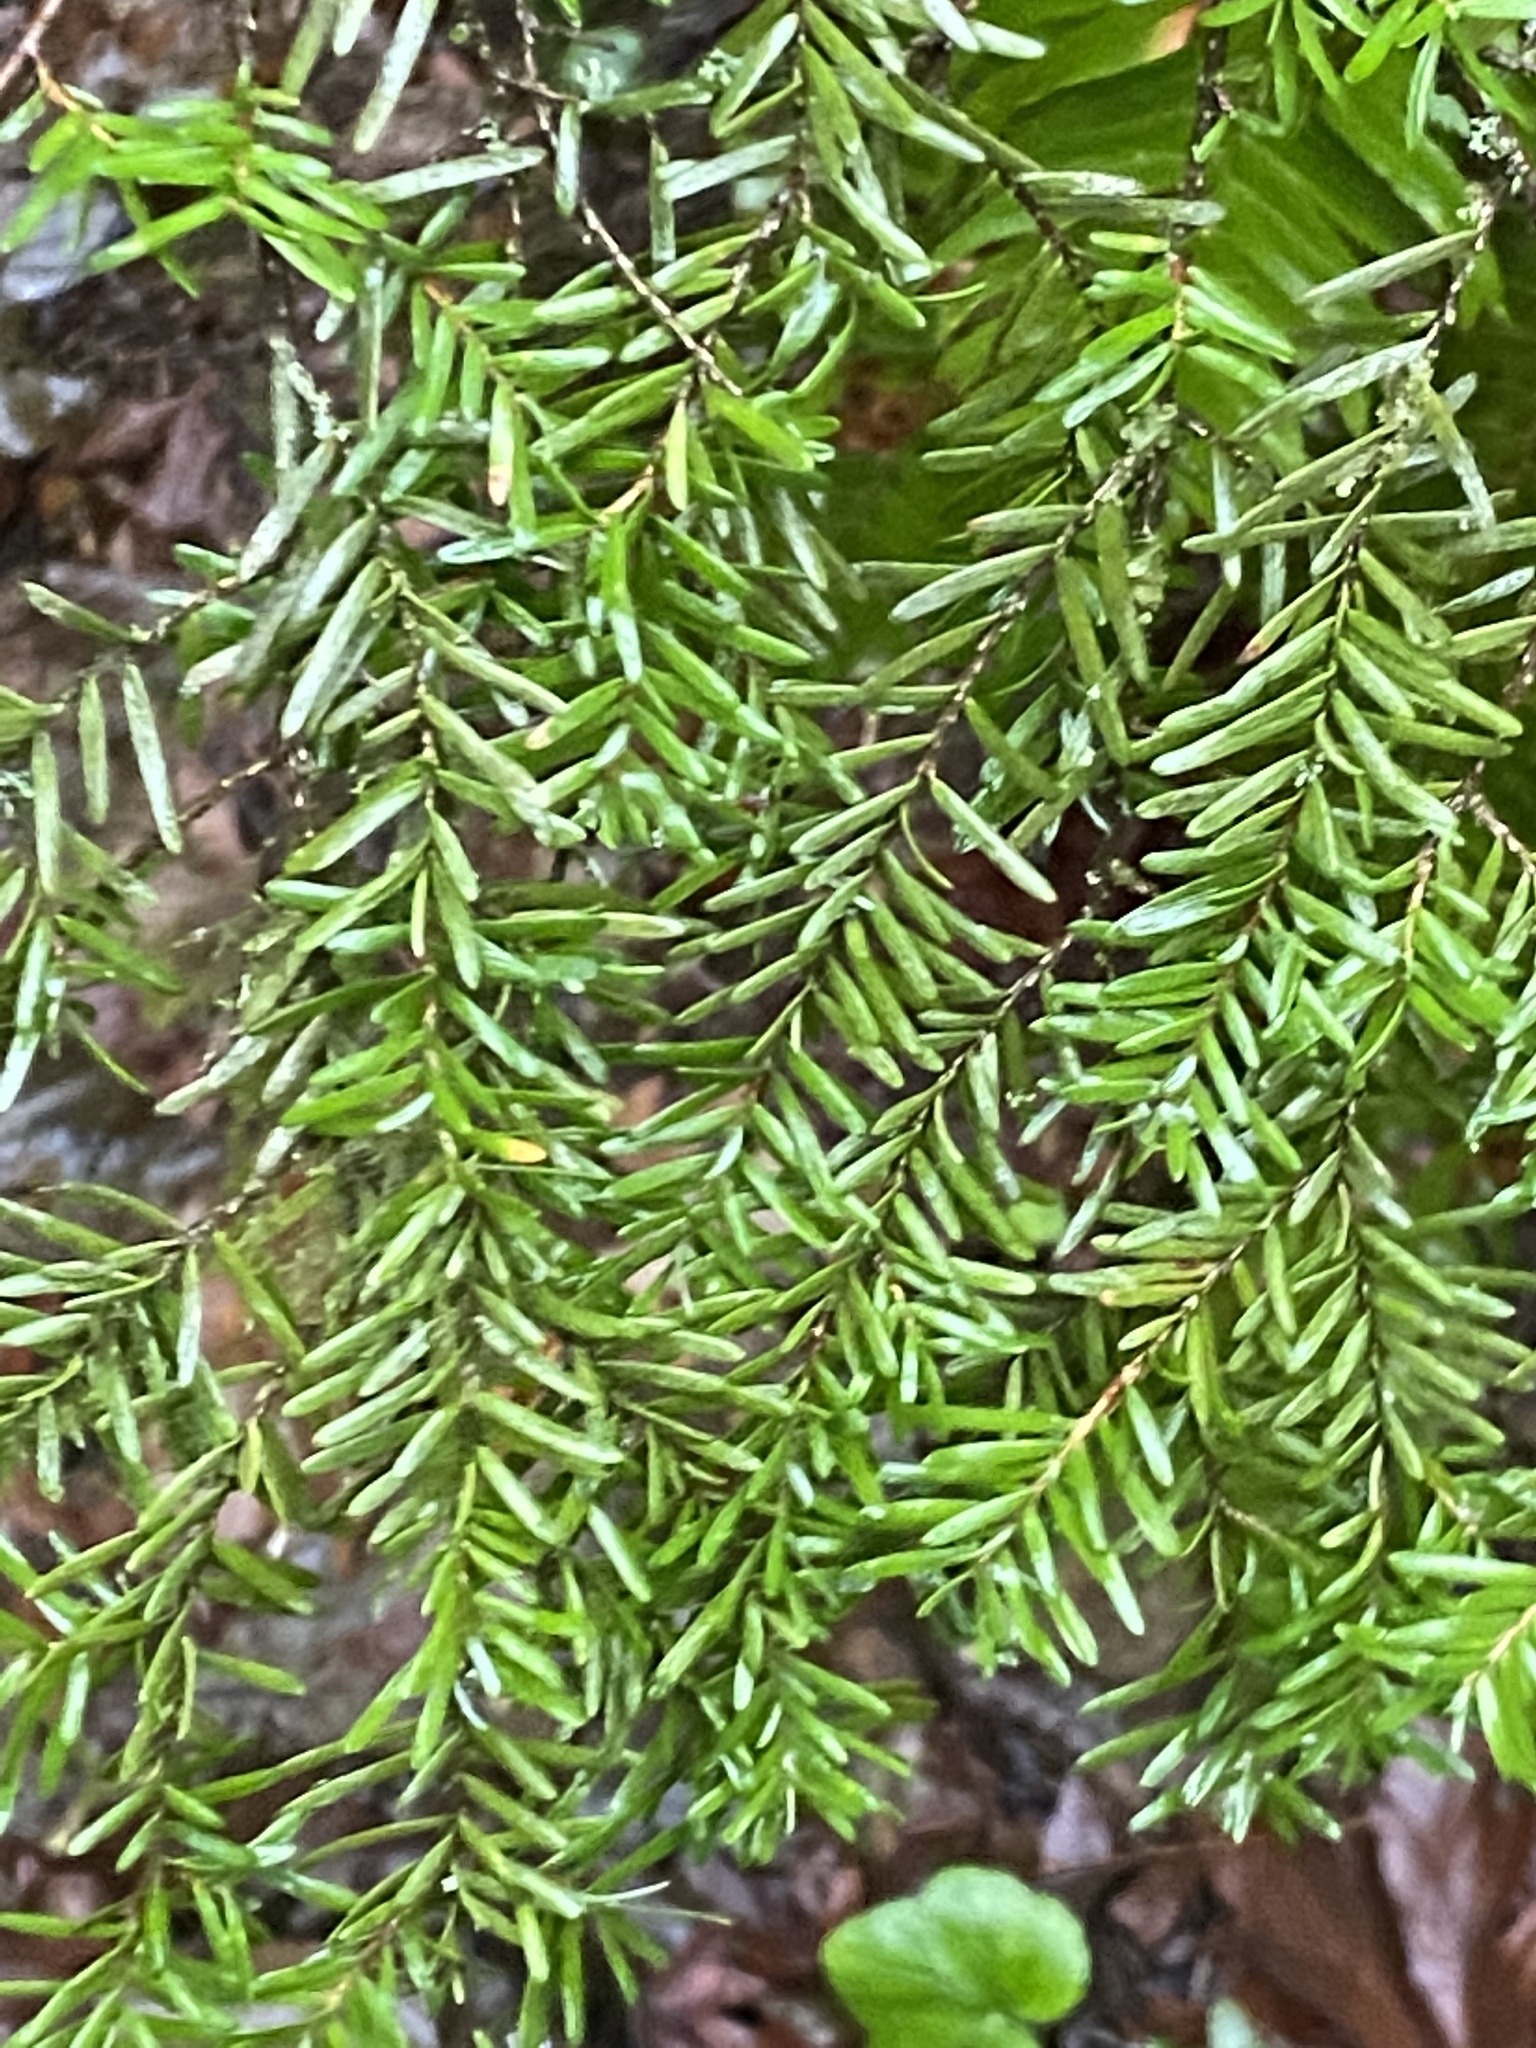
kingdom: Plantae
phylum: Tracheophyta
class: Pinopsida
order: Pinales
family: Pinaceae
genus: Tsuga
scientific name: Tsuga heterophylla
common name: Western hemlock
